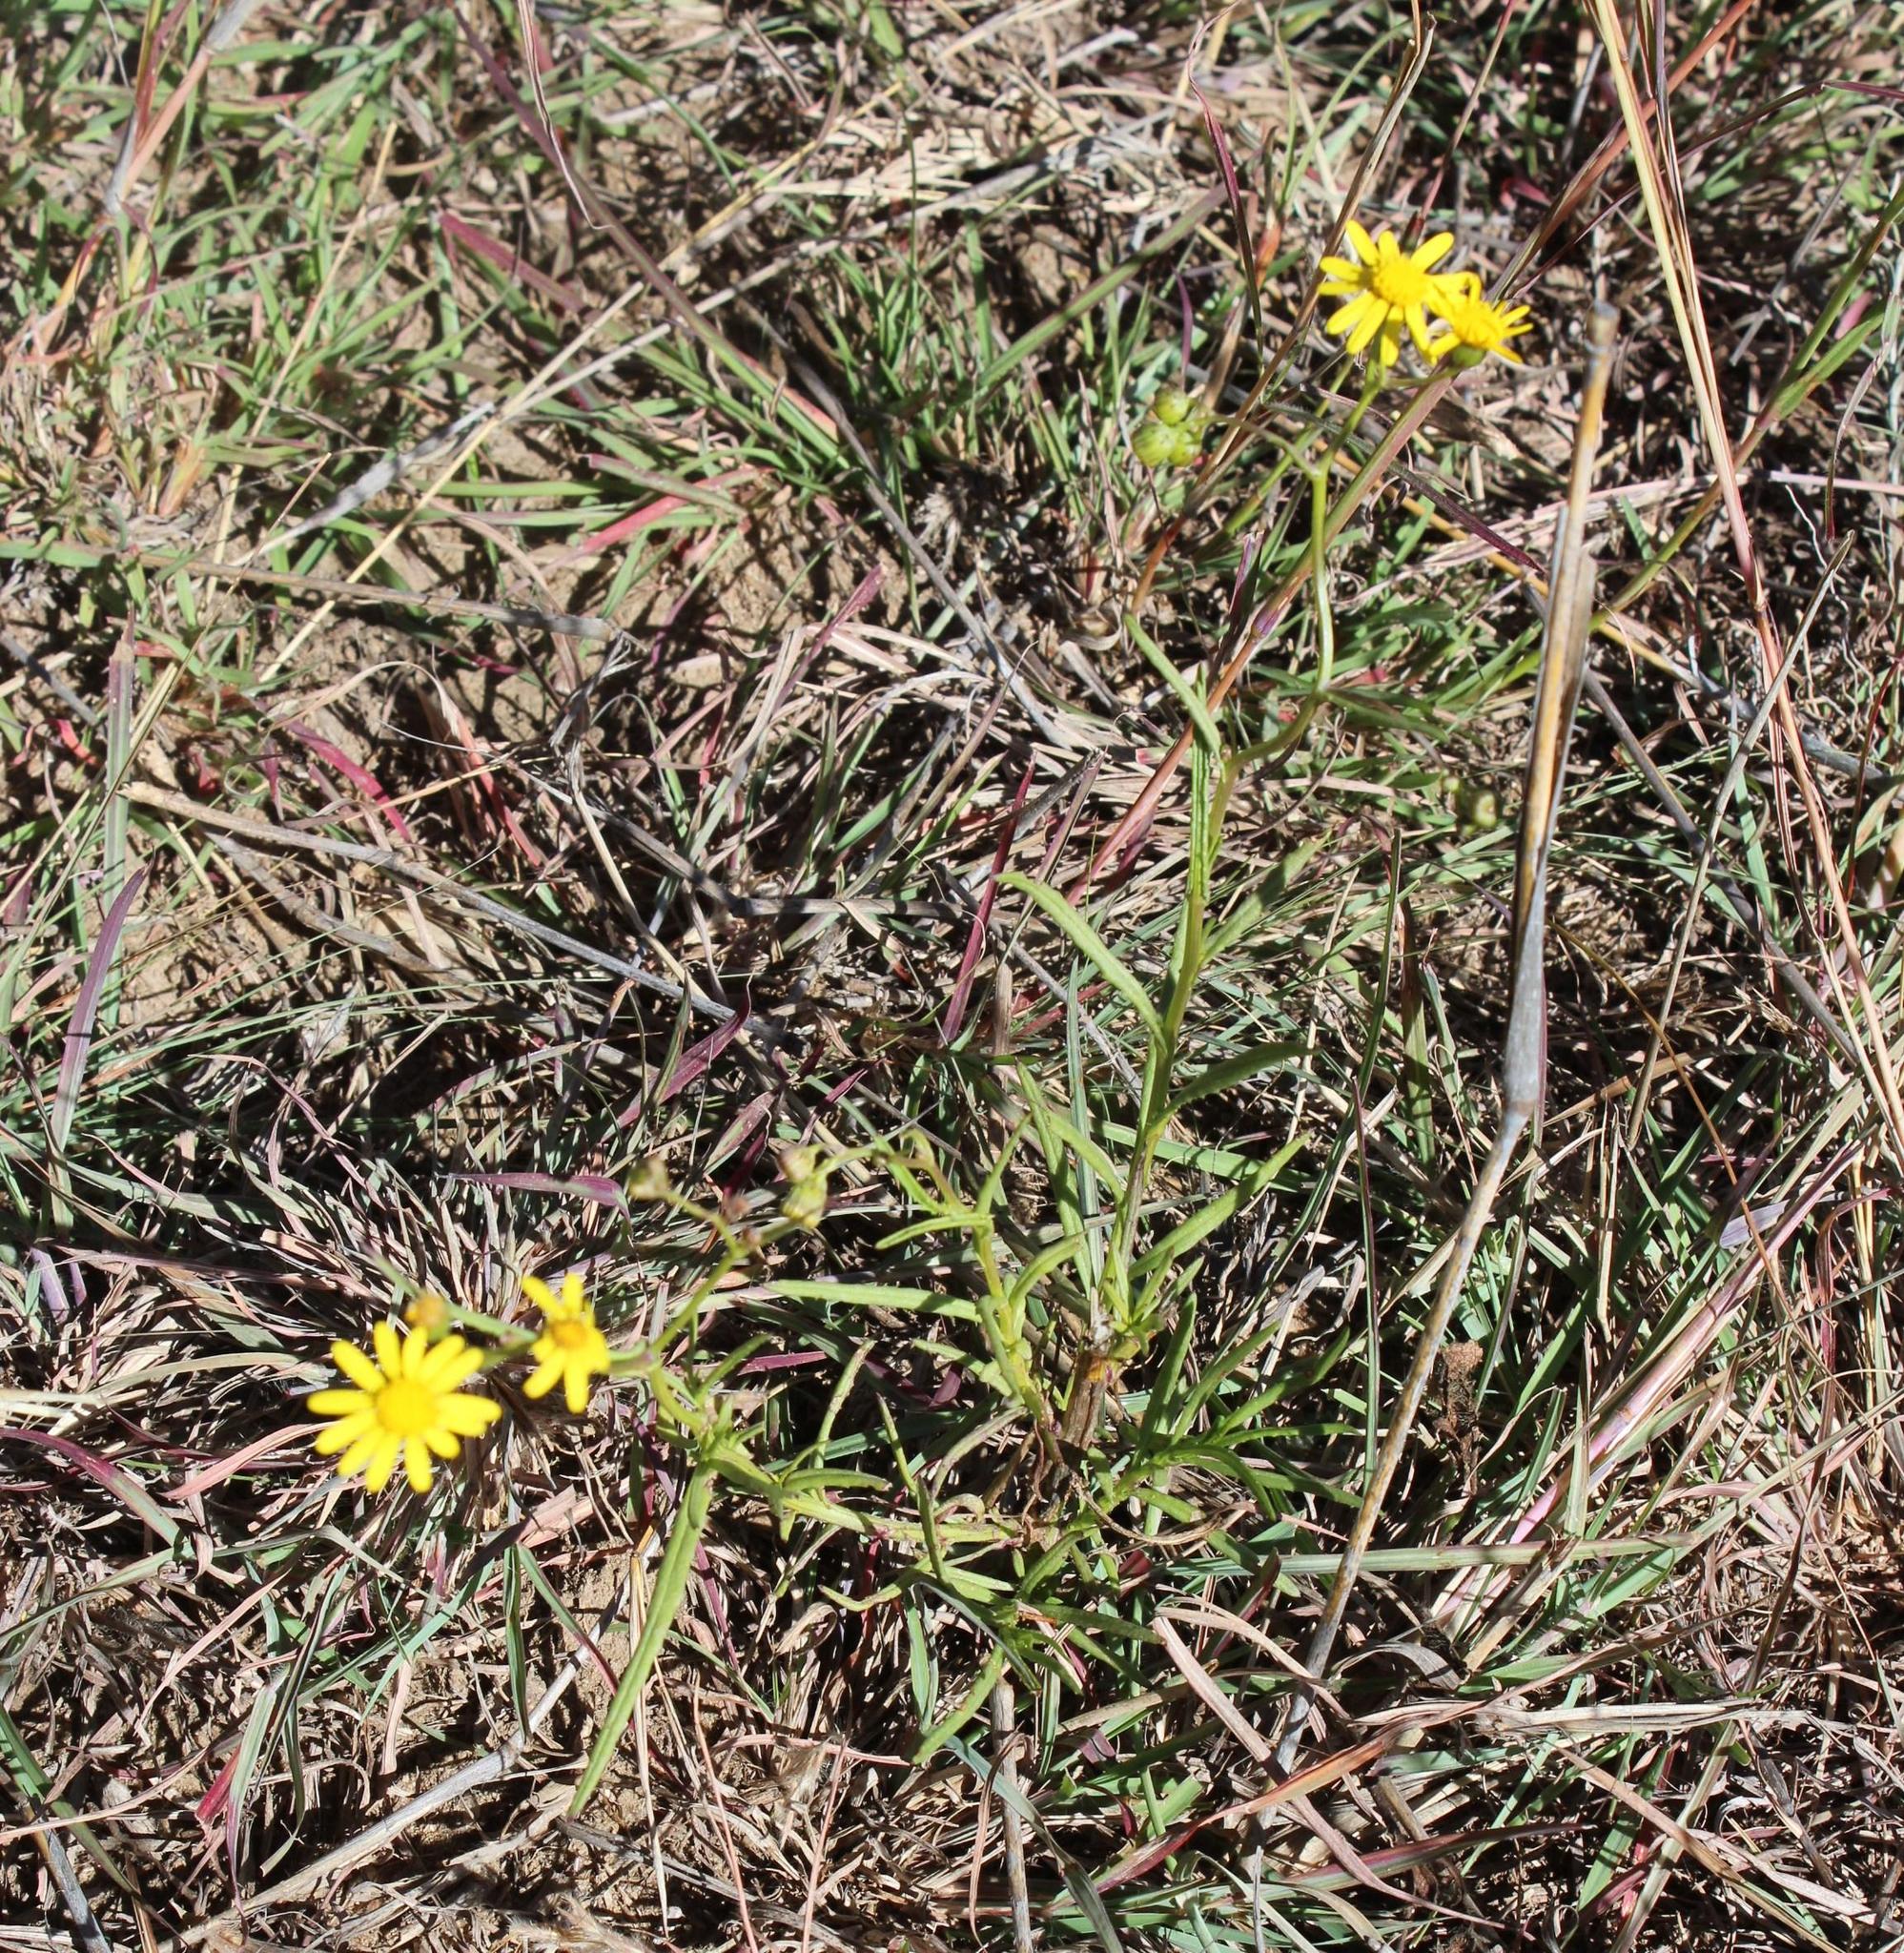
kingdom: Plantae
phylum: Tracheophyta
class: Magnoliopsida
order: Asterales
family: Asteraceae
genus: Senecio
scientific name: Senecio harveyanus
